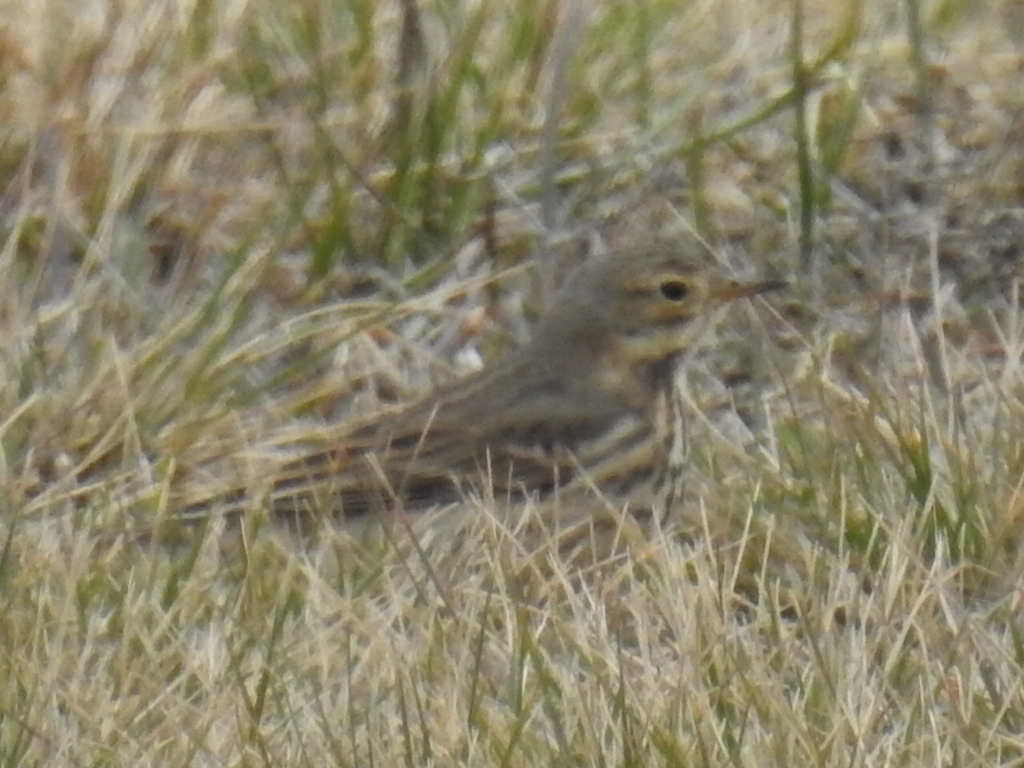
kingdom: Animalia
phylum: Chordata
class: Aves
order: Passeriformes
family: Motacillidae
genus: Anthus
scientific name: Anthus rubescens
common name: Buff-bellied pipit
